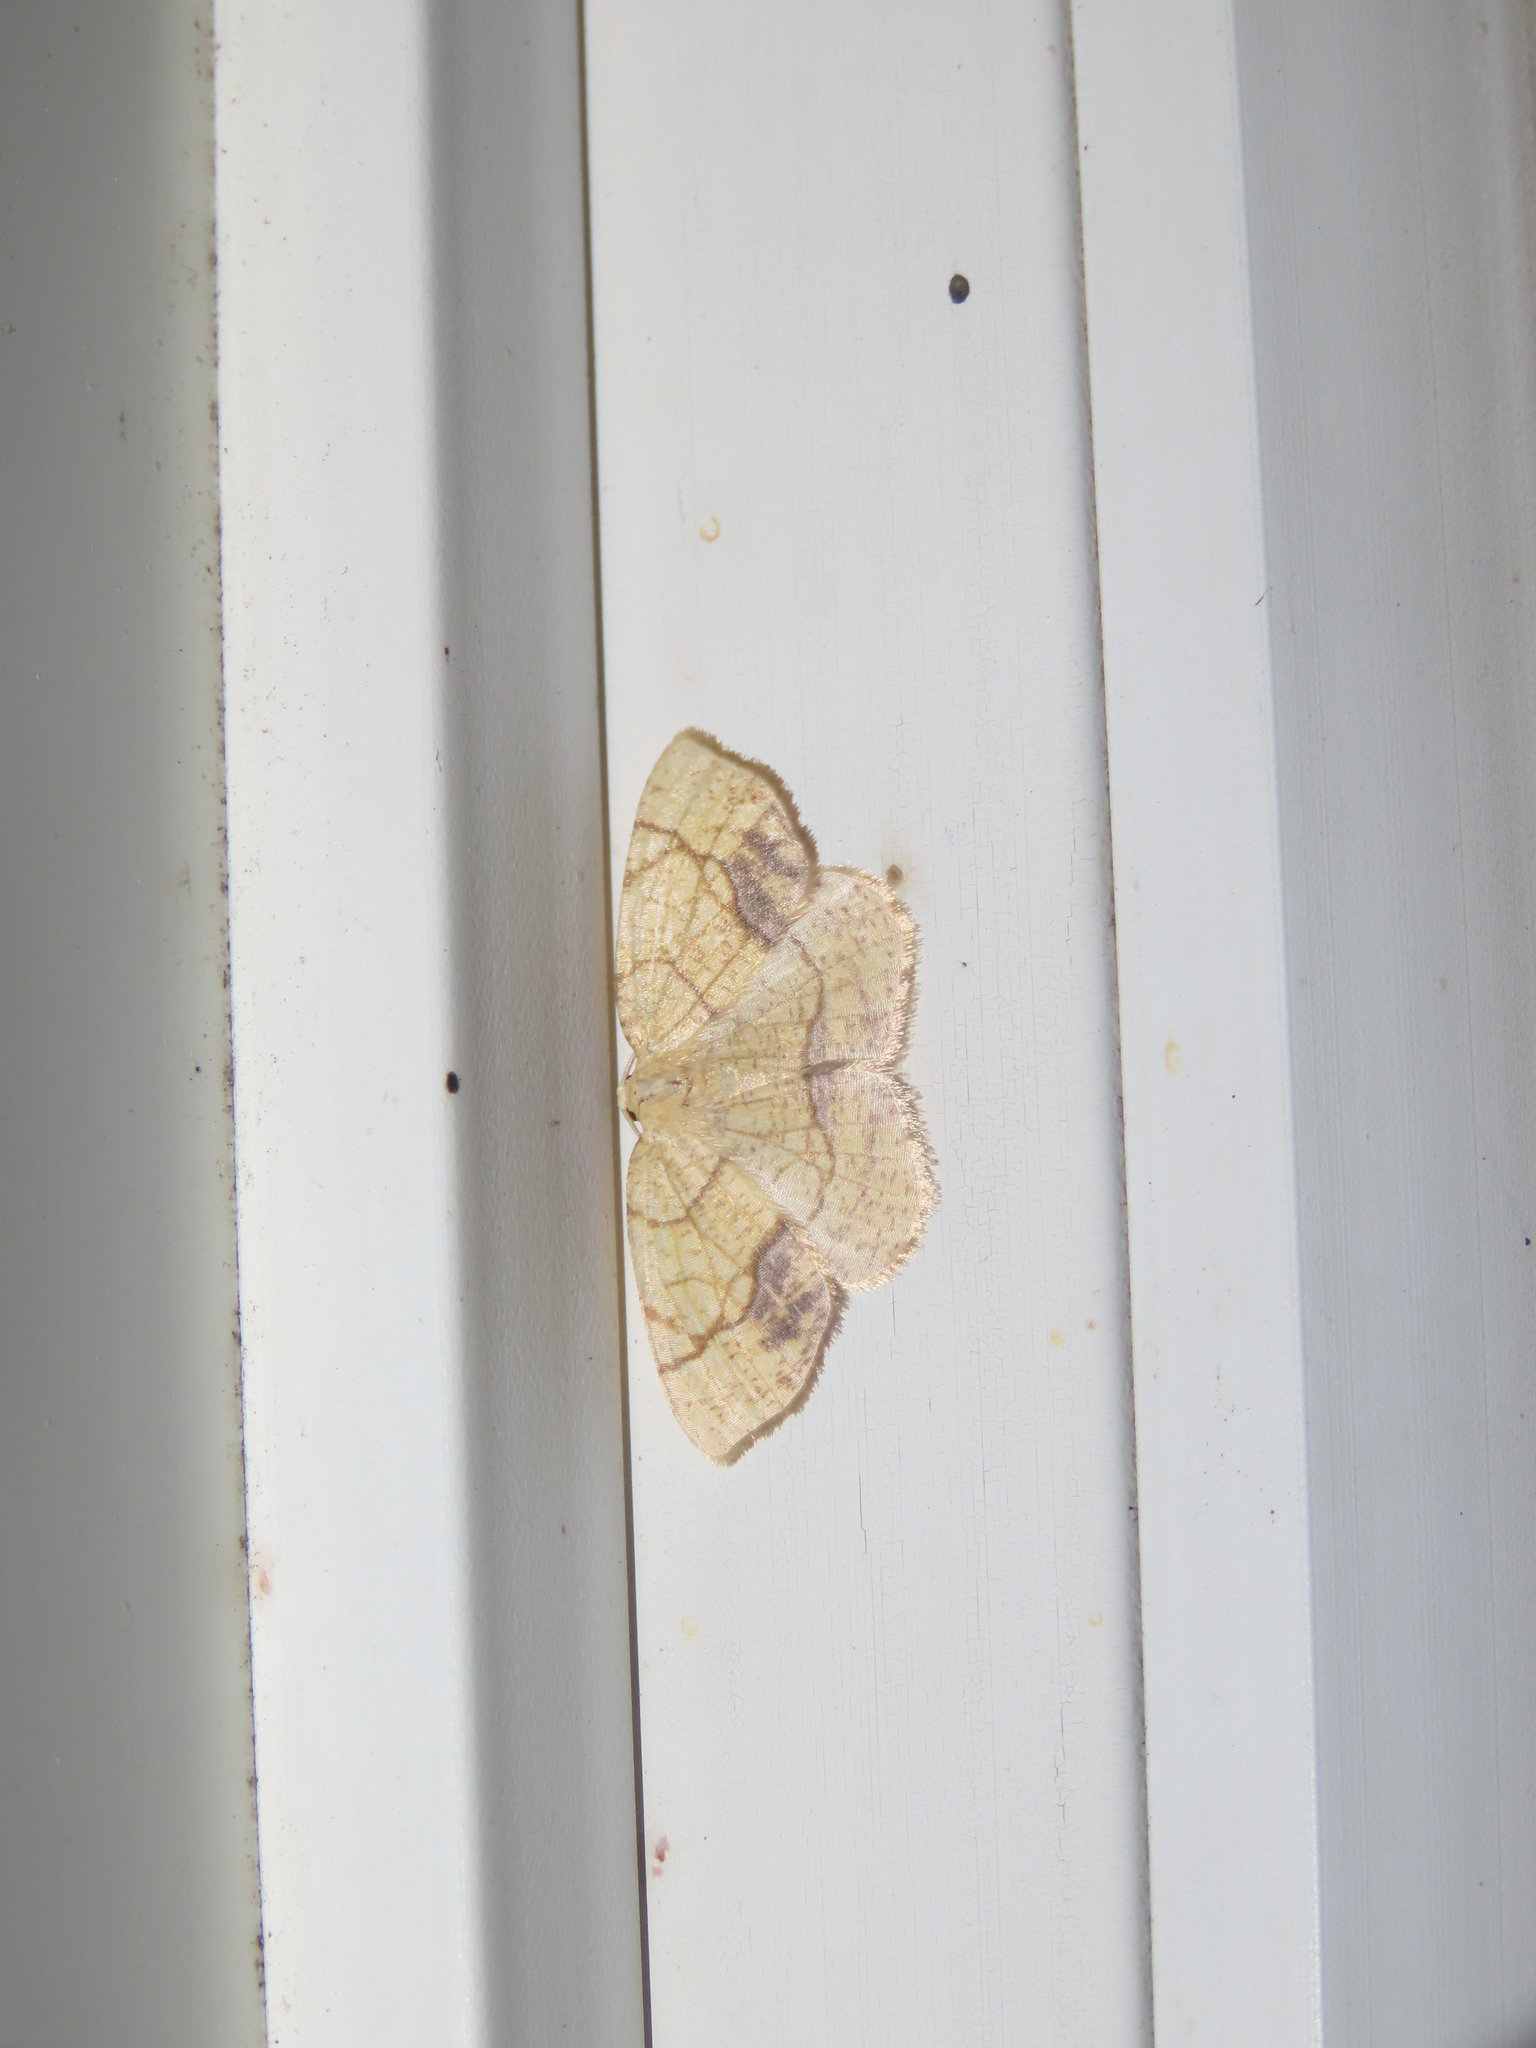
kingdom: Animalia
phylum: Arthropoda
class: Insecta
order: Lepidoptera
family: Geometridae
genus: Nematocampa
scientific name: Nematocampa resistaria
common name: Horned spanworm moth
